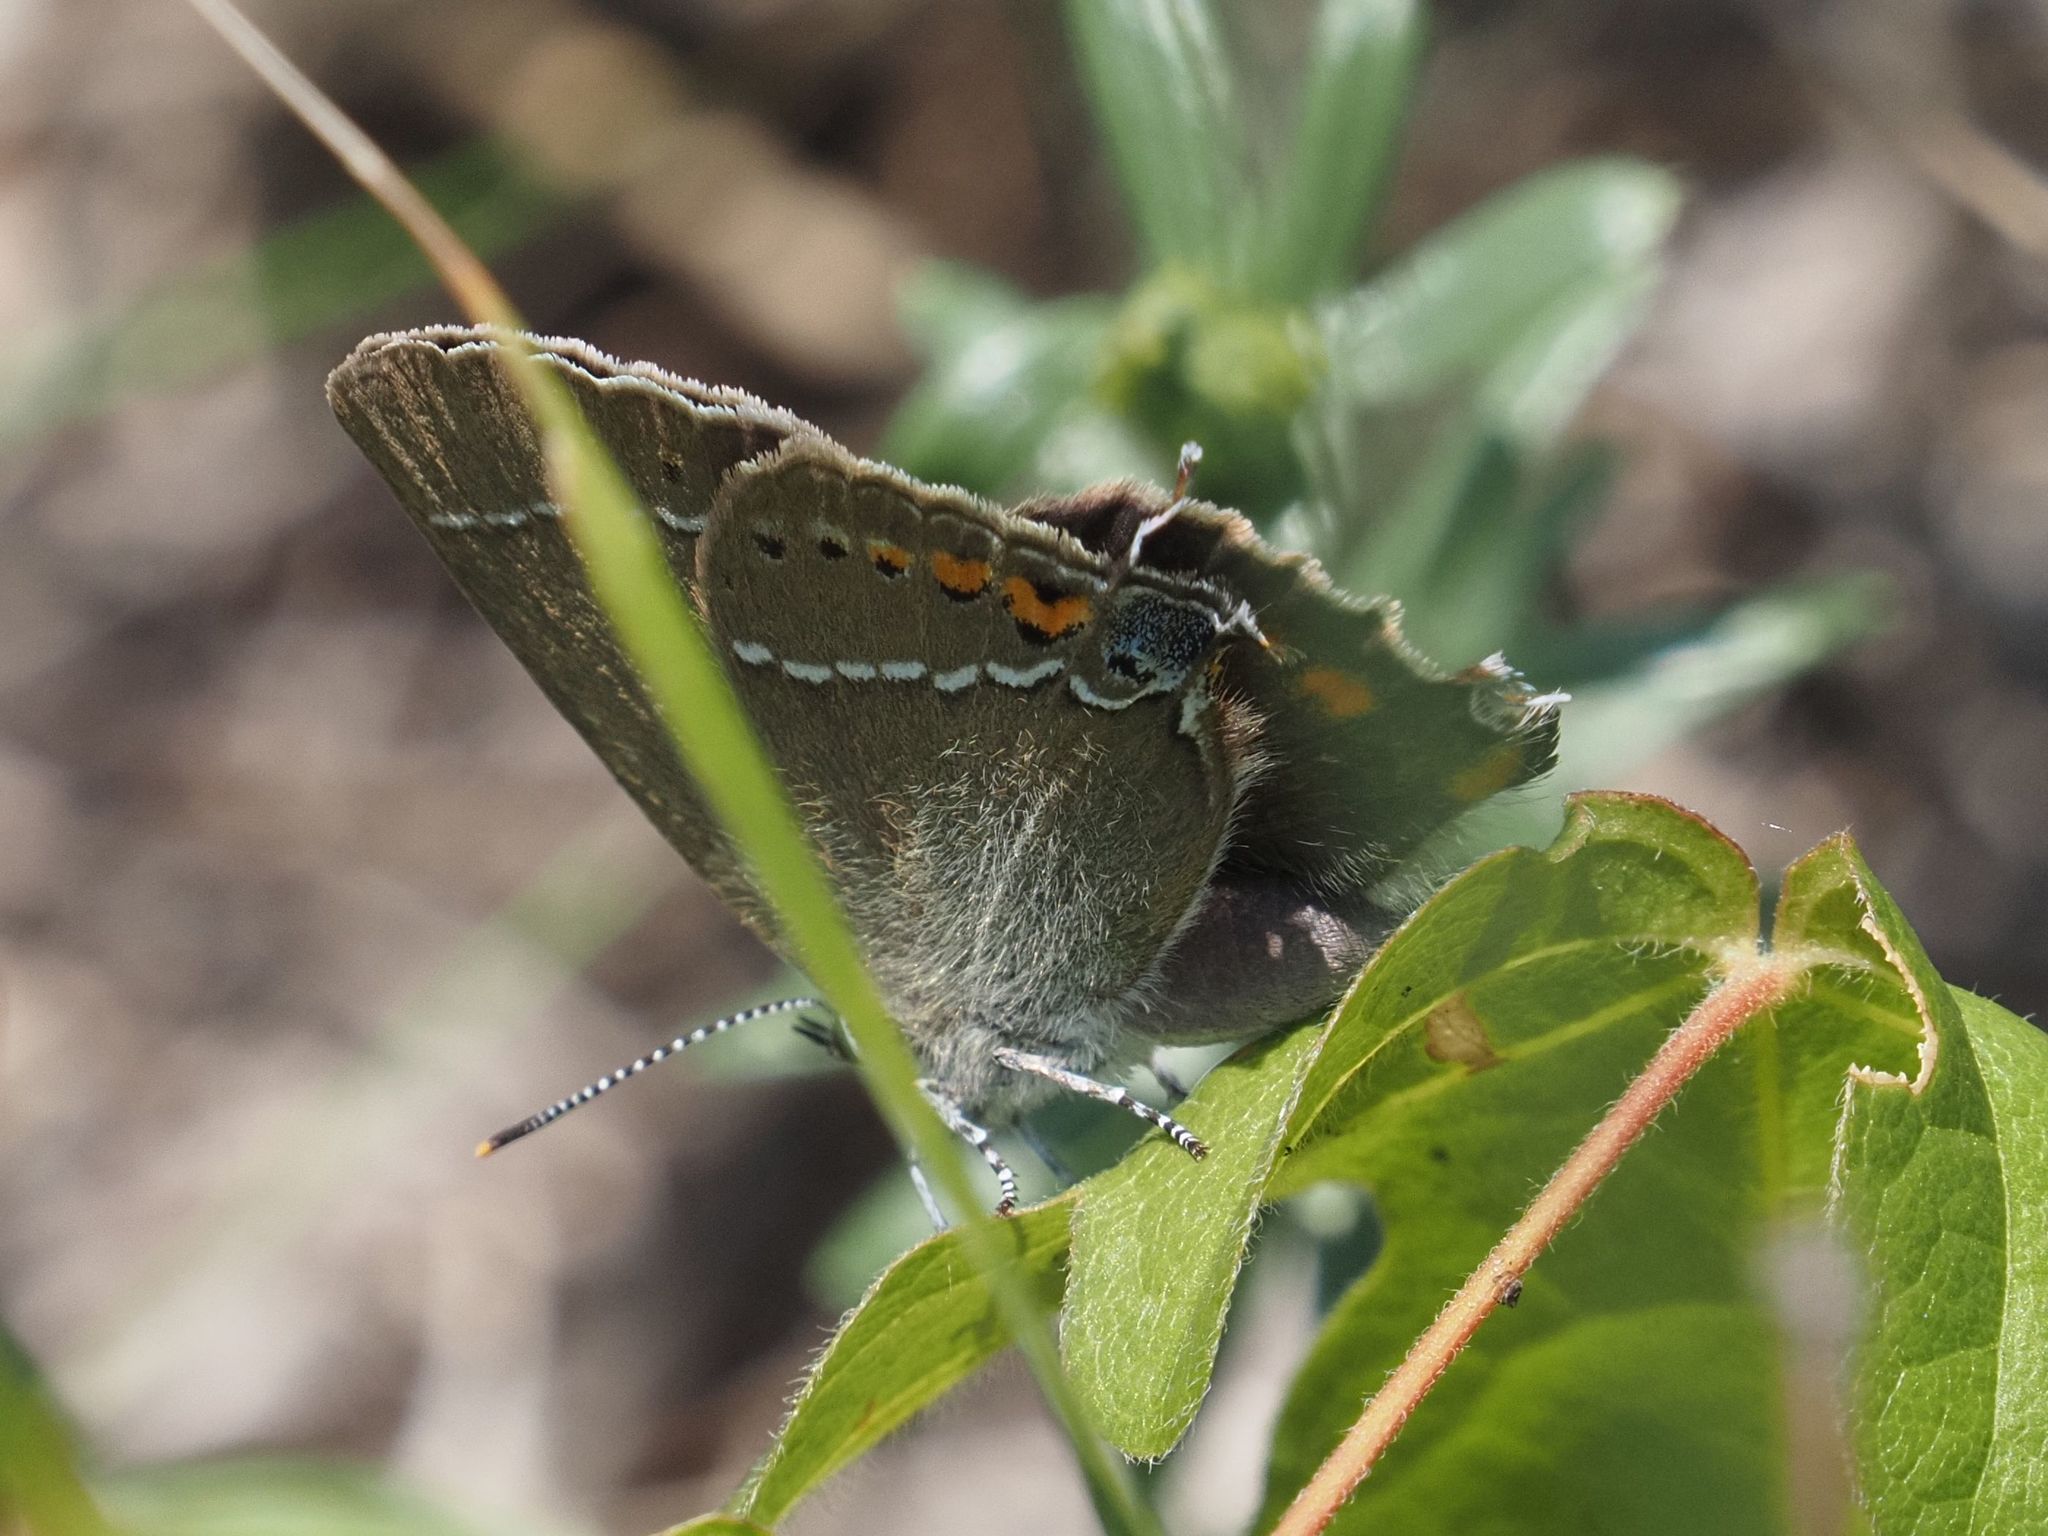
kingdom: Animalia
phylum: Arthropoda
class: Insecta
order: Lepidoptera
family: Lycaenidae
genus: Tuttiola
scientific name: Tuttiola spini
